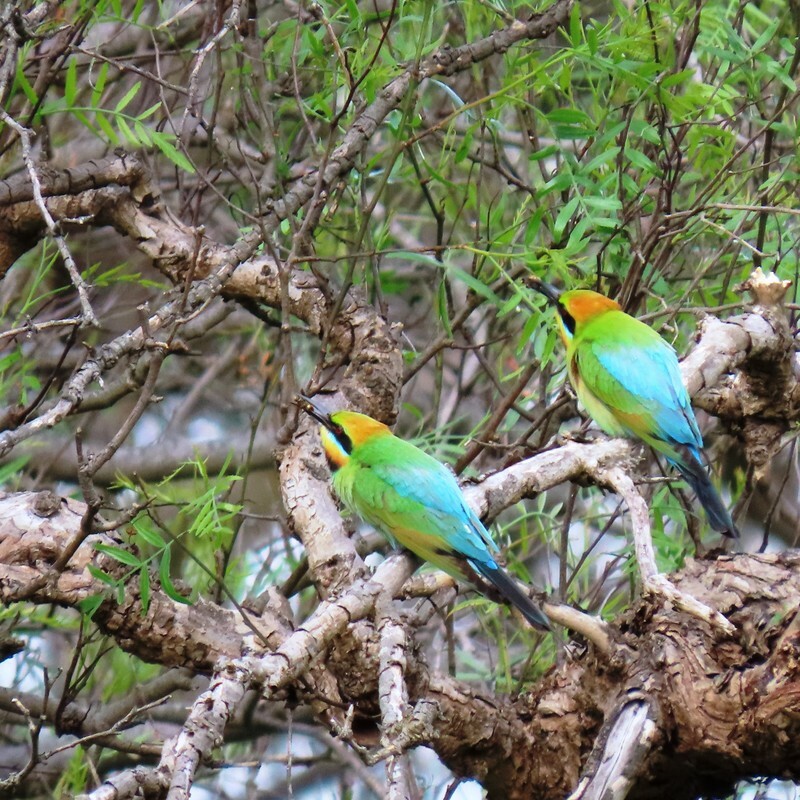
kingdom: Animalia
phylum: Chordata
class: Aves
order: Coraciiformes
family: Meropidae
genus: Merops
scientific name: Merops ornatus
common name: Rainbow bee-eater
